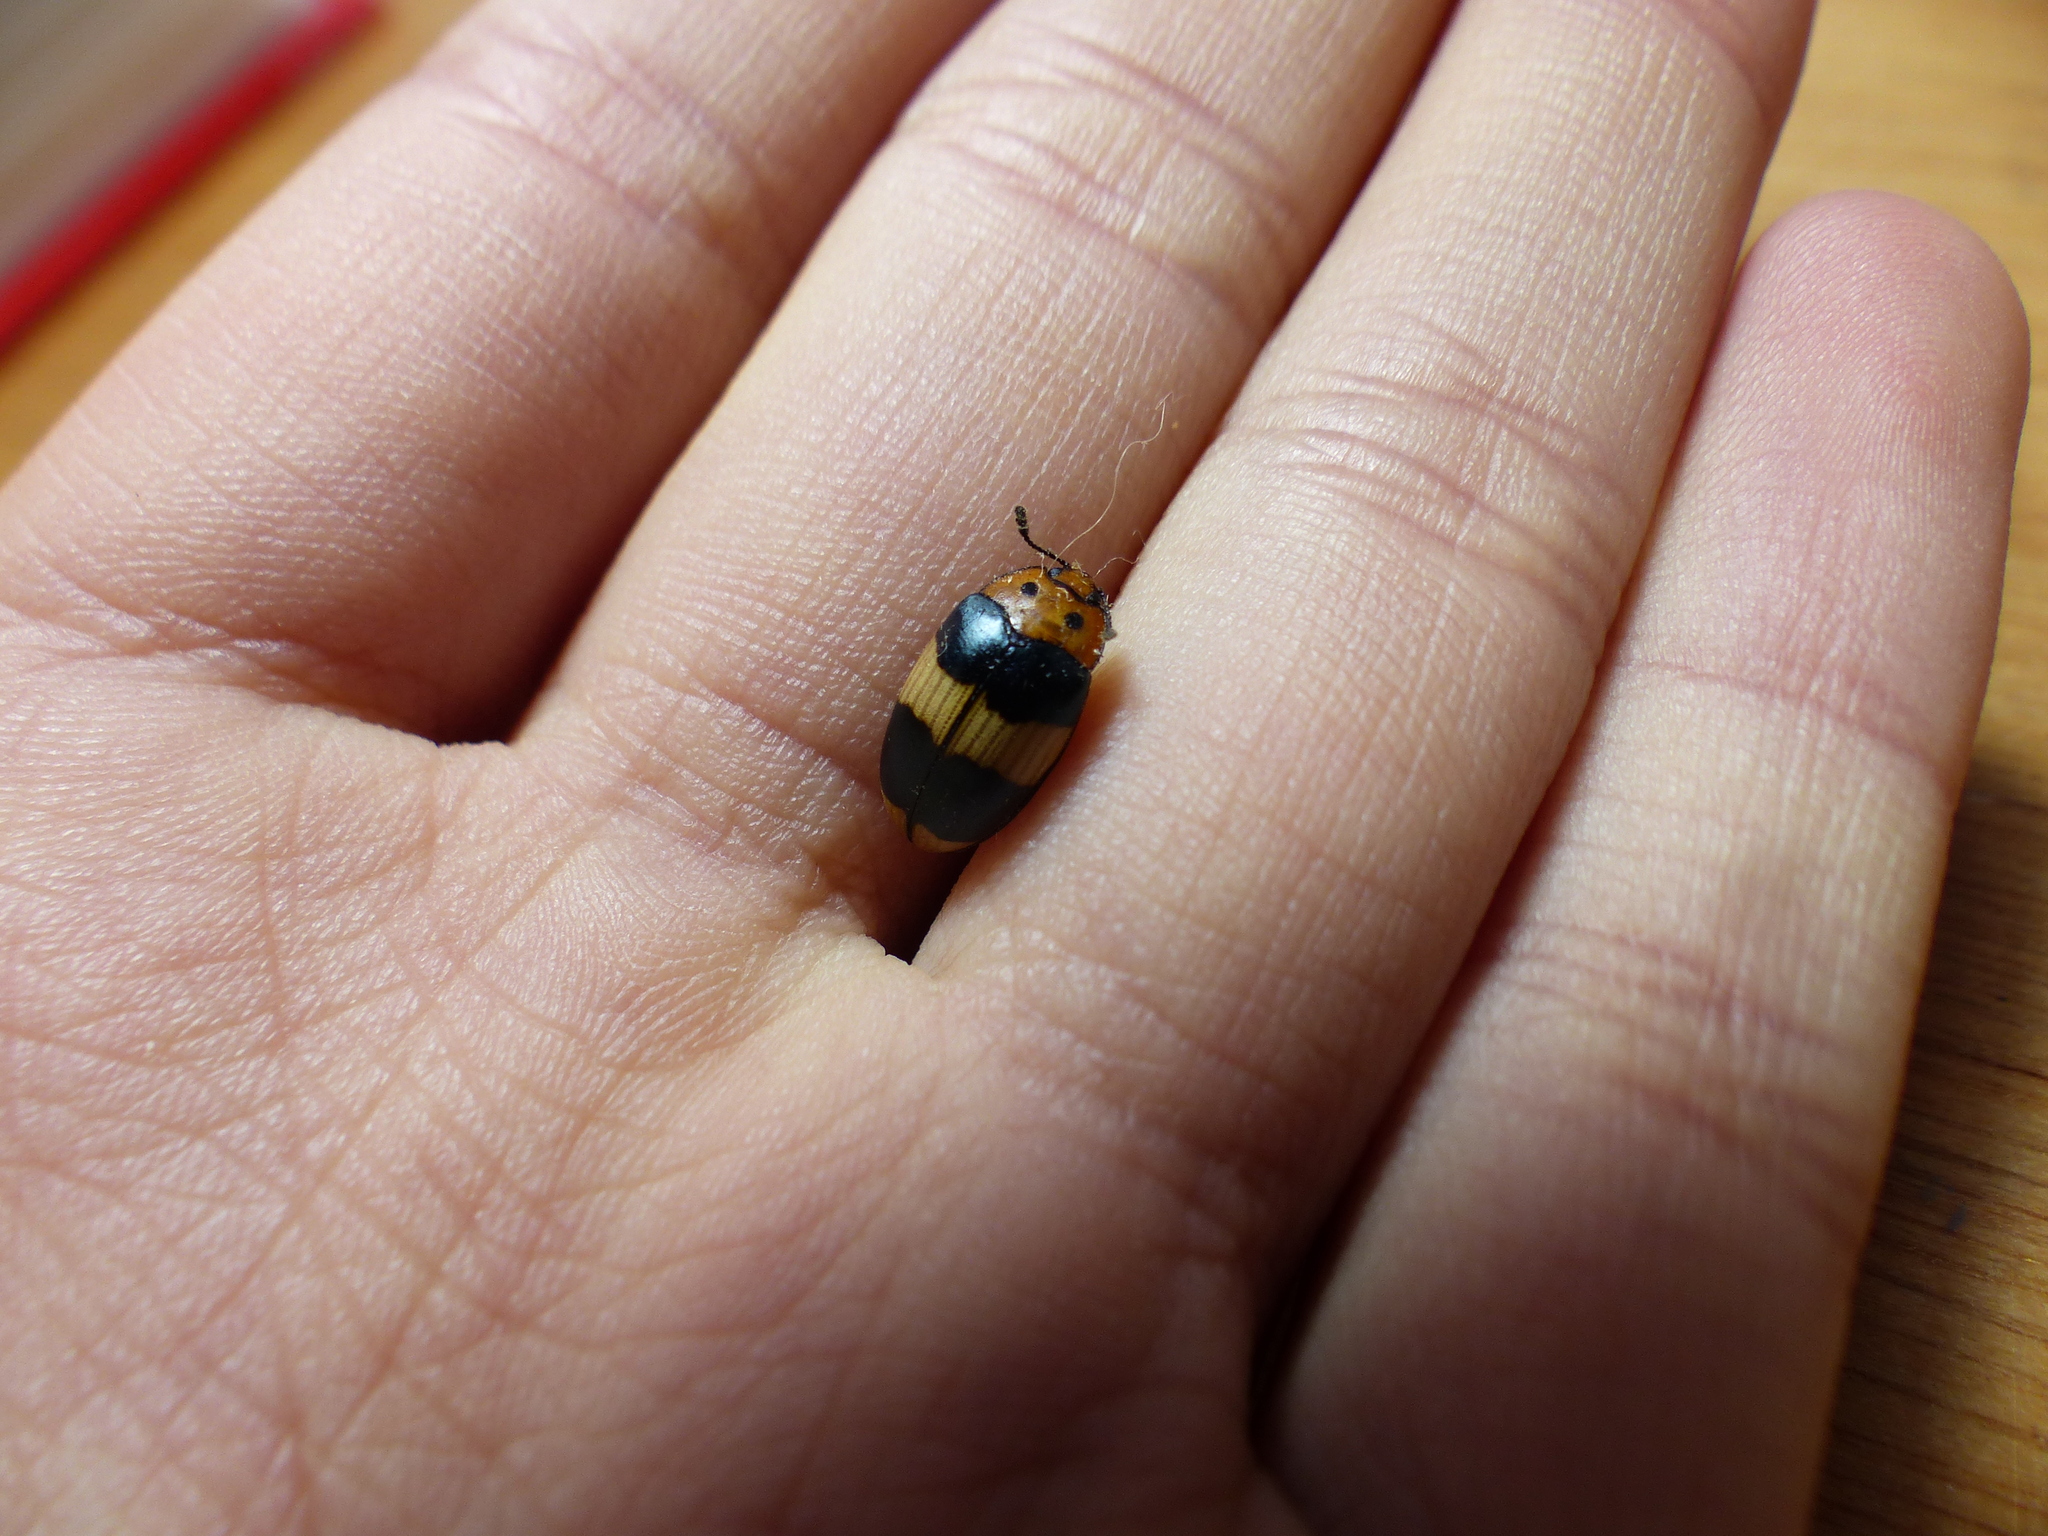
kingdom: Animalia
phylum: Arthropoda
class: Insecta
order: Coleoptera
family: Erotylidae
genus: Callischyrus
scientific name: Callischyrus
